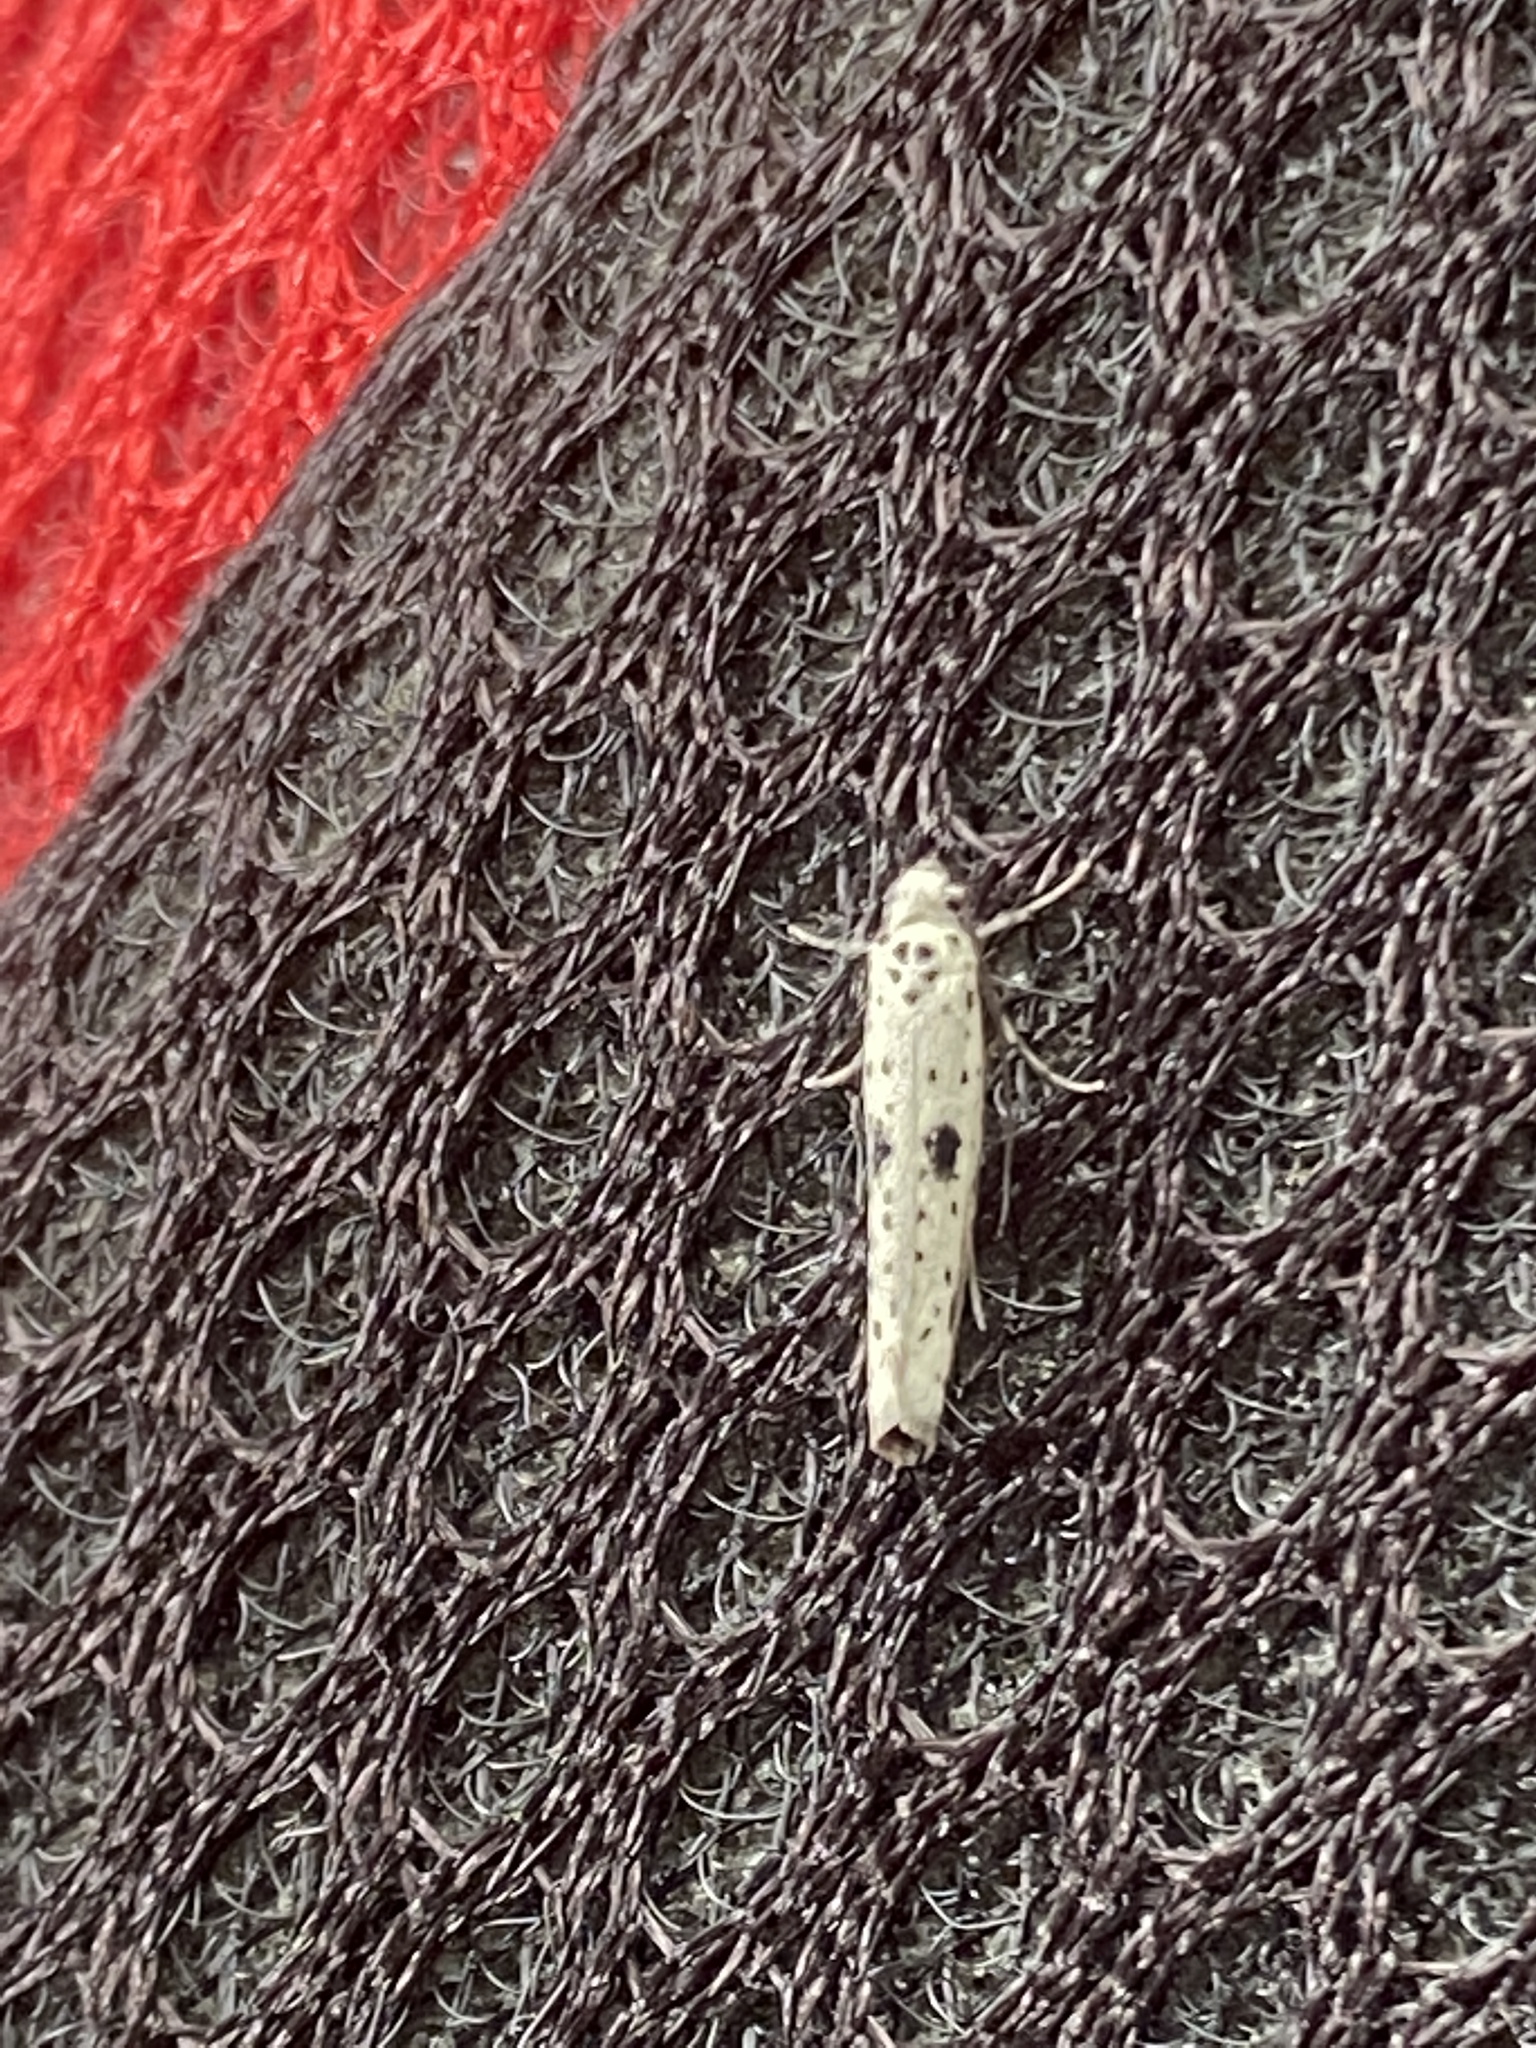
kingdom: Animalia
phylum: Arthropoda
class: Insecta
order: Lepidoptera
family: Yponomeutidae
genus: Yponomeuta
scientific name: Yponomeuta plumbella
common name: Black-tipped ermine
